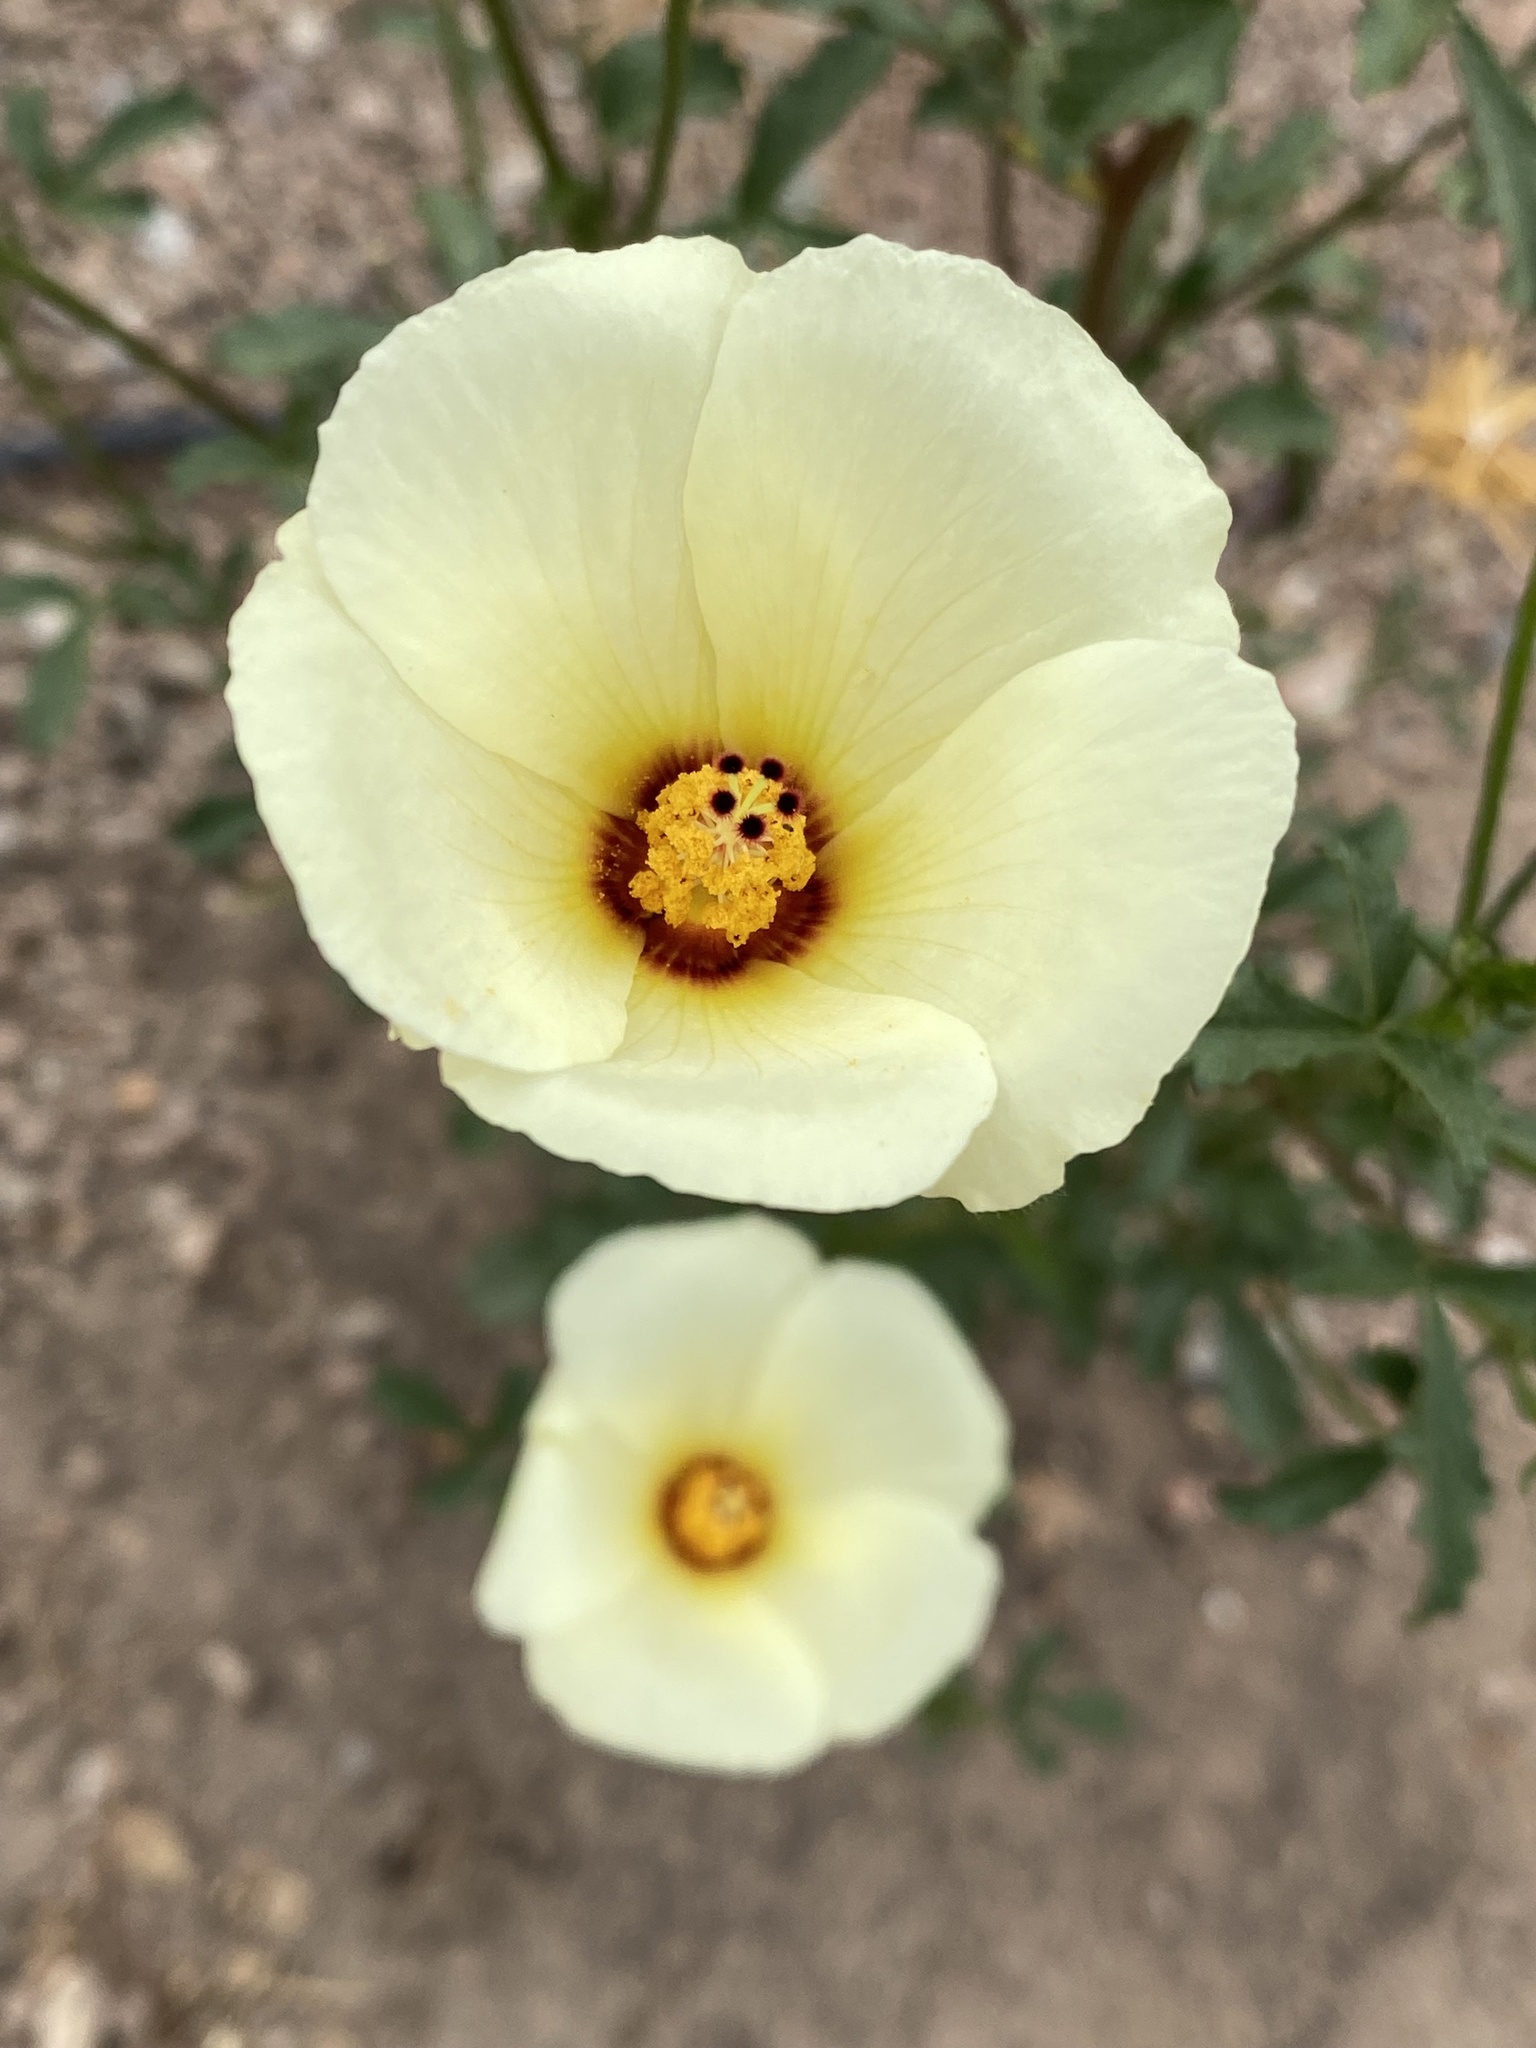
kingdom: Plantae
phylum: Tracheophyta
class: Magnoliopsida
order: Malvales
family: Malvaceae
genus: Hibiscus
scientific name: Hibiscus coulteri
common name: Desert rose-mallow
